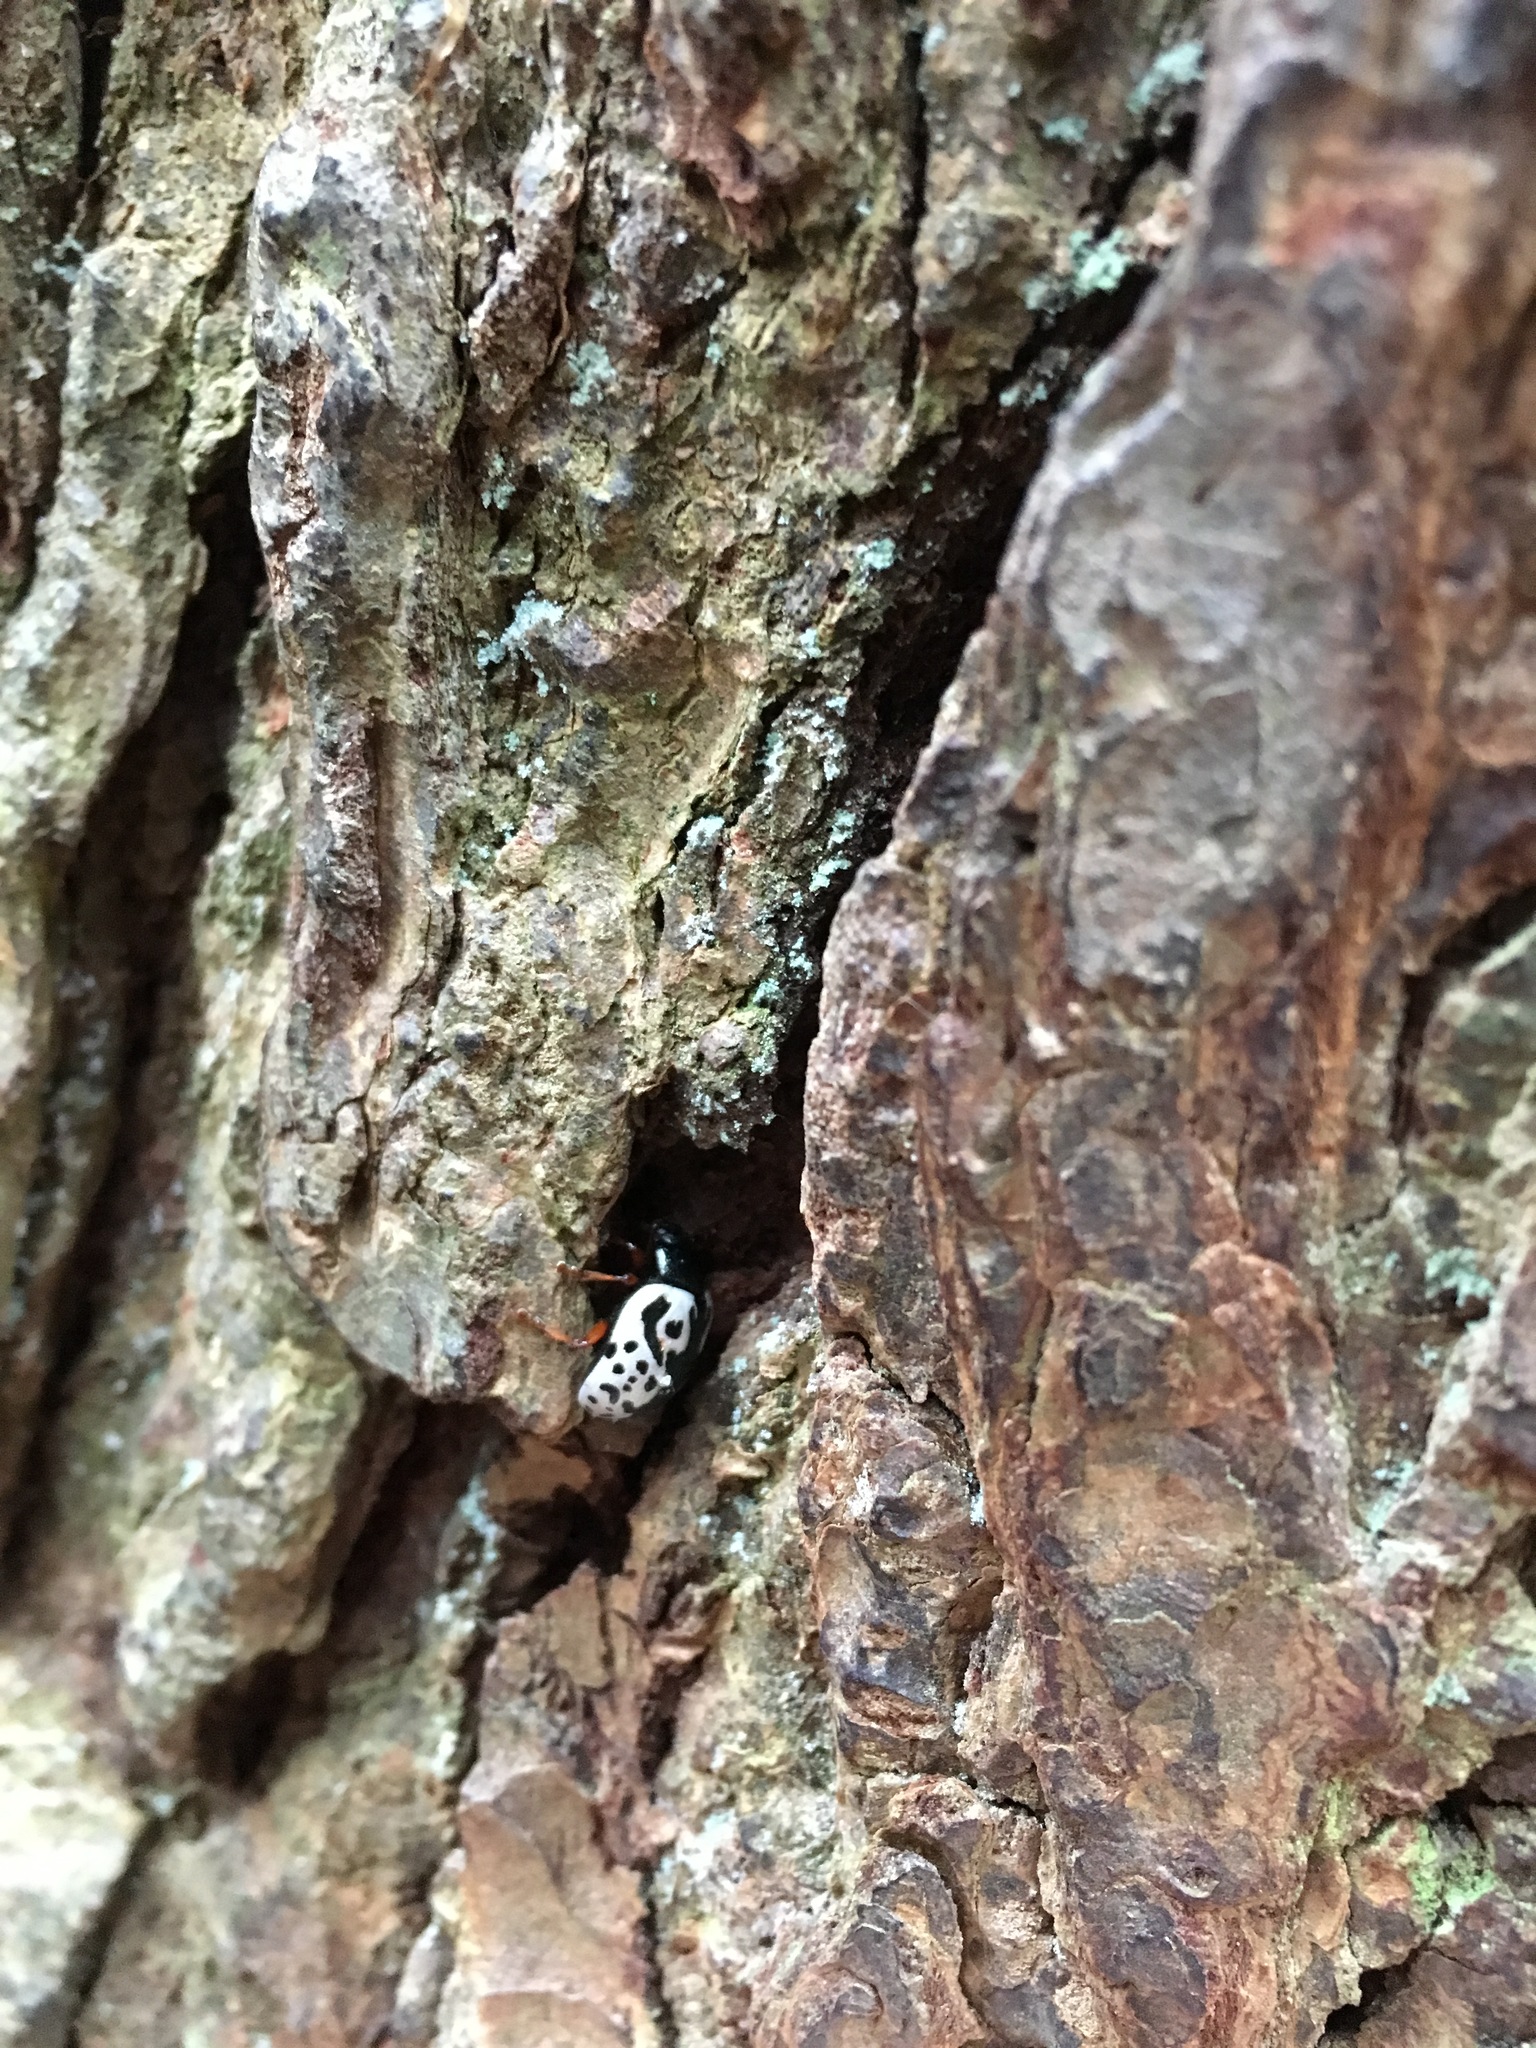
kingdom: Animalia
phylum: Arthropoda
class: Insecta
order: Coleoptera
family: Chrysomelidae
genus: Calligrapha
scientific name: Calligrapha ignota
